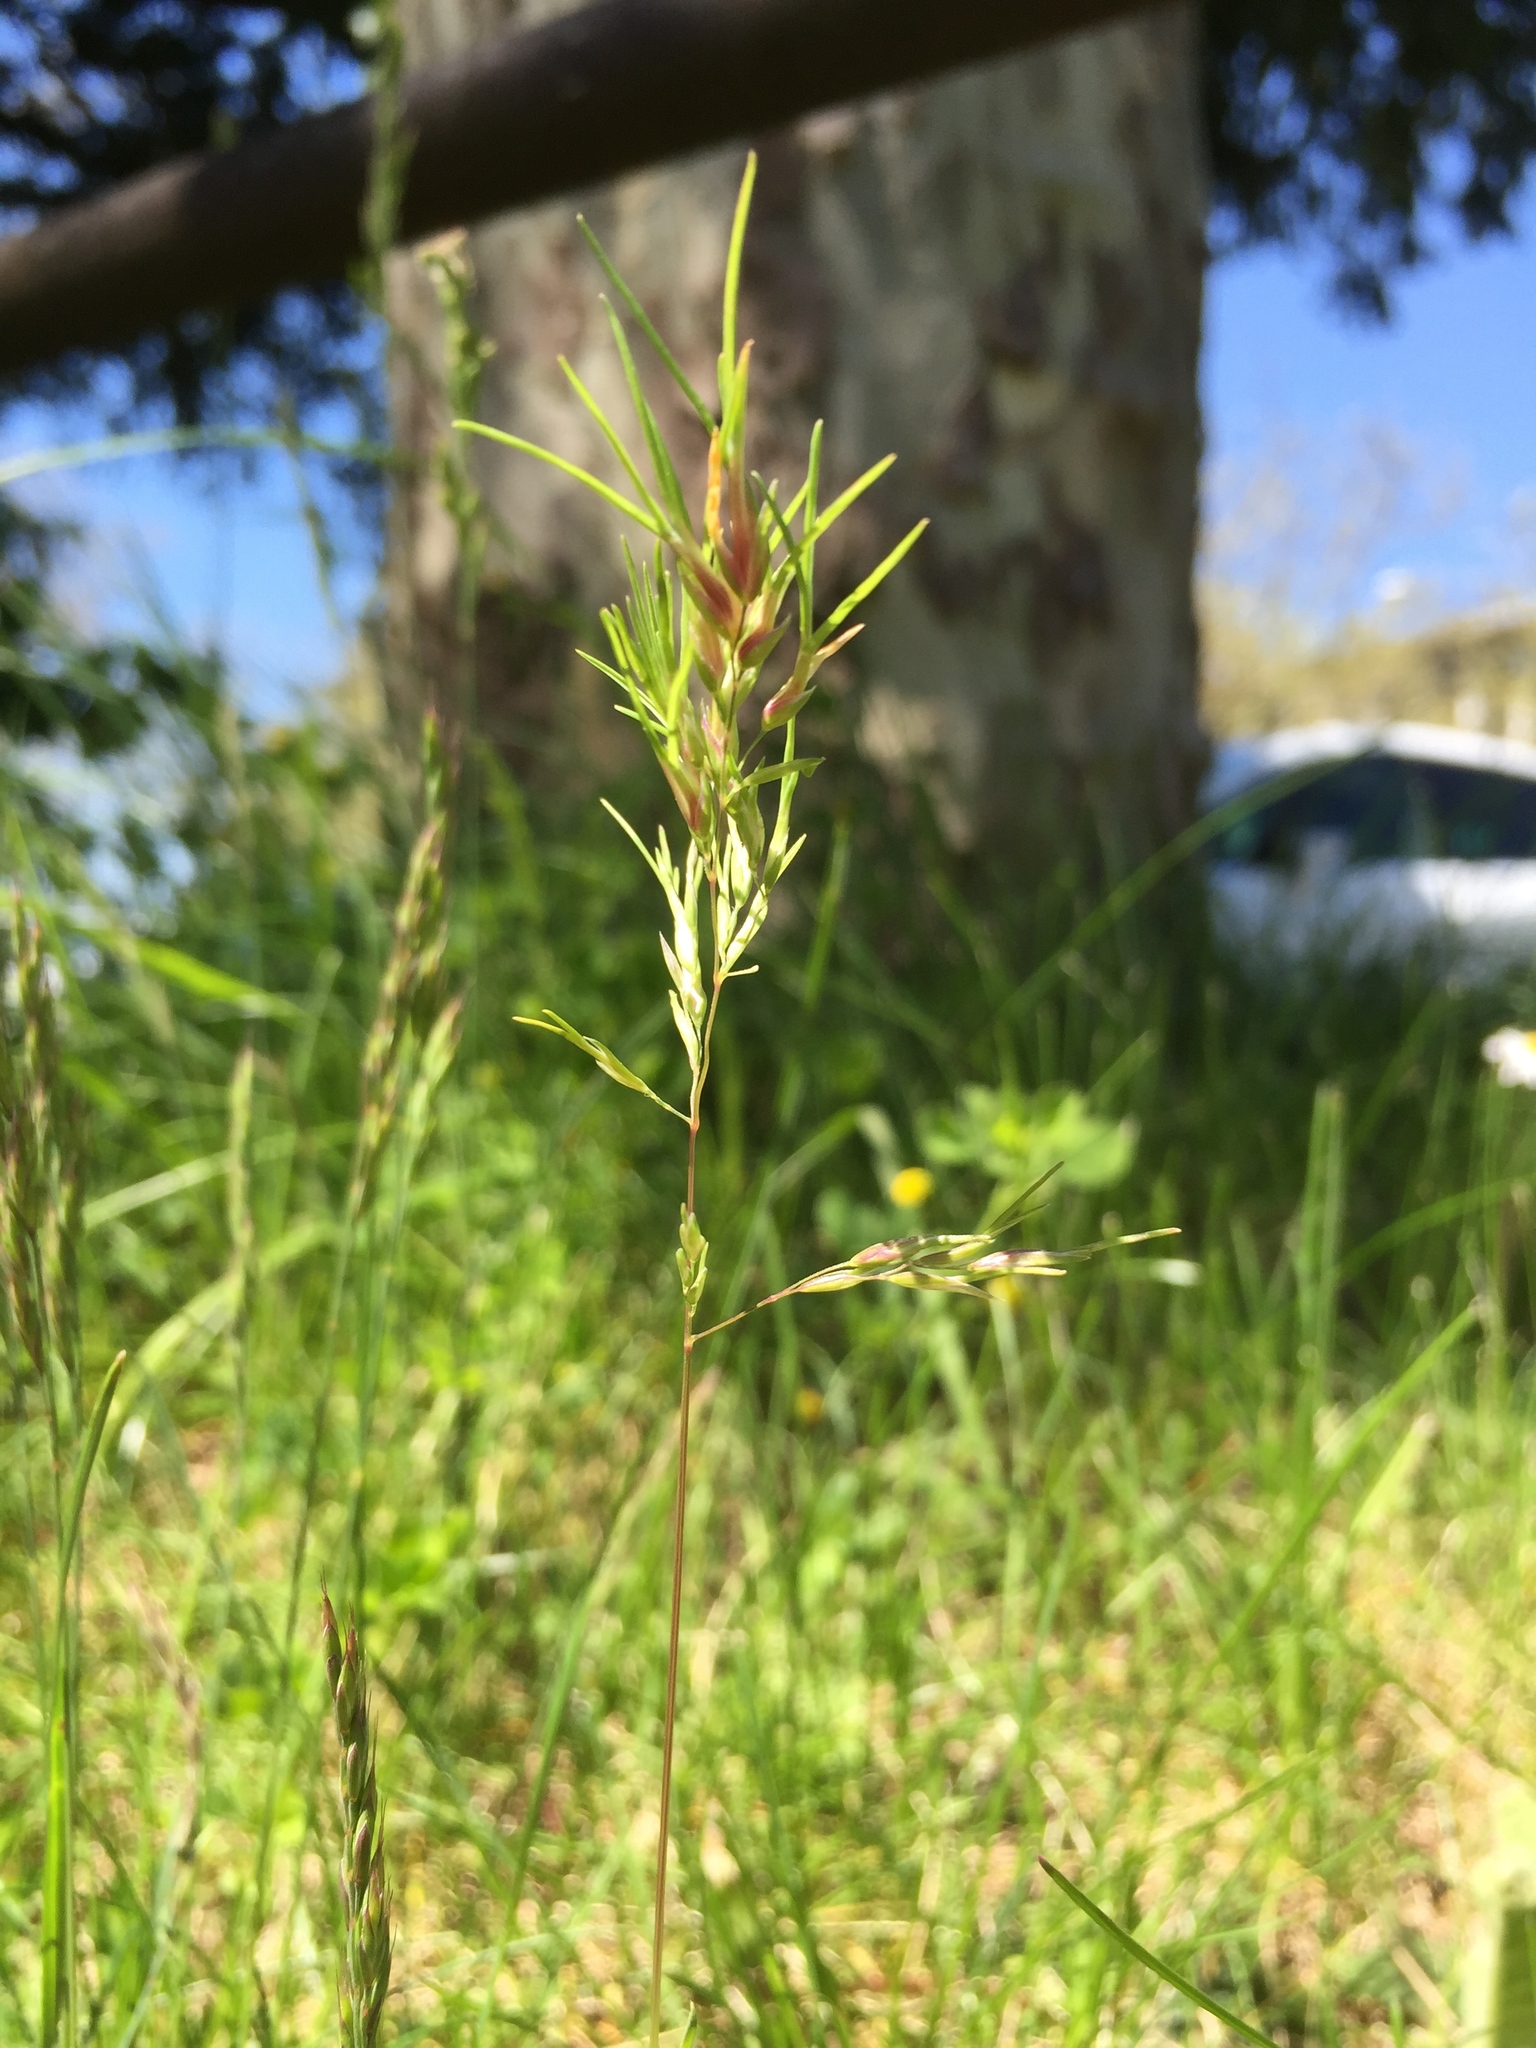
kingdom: Plantae
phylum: Tracheophyta
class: Liliopsida
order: Poales
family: Poaceae
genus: Poa
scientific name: Poa bulbosa
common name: Bulbous bluegrass
